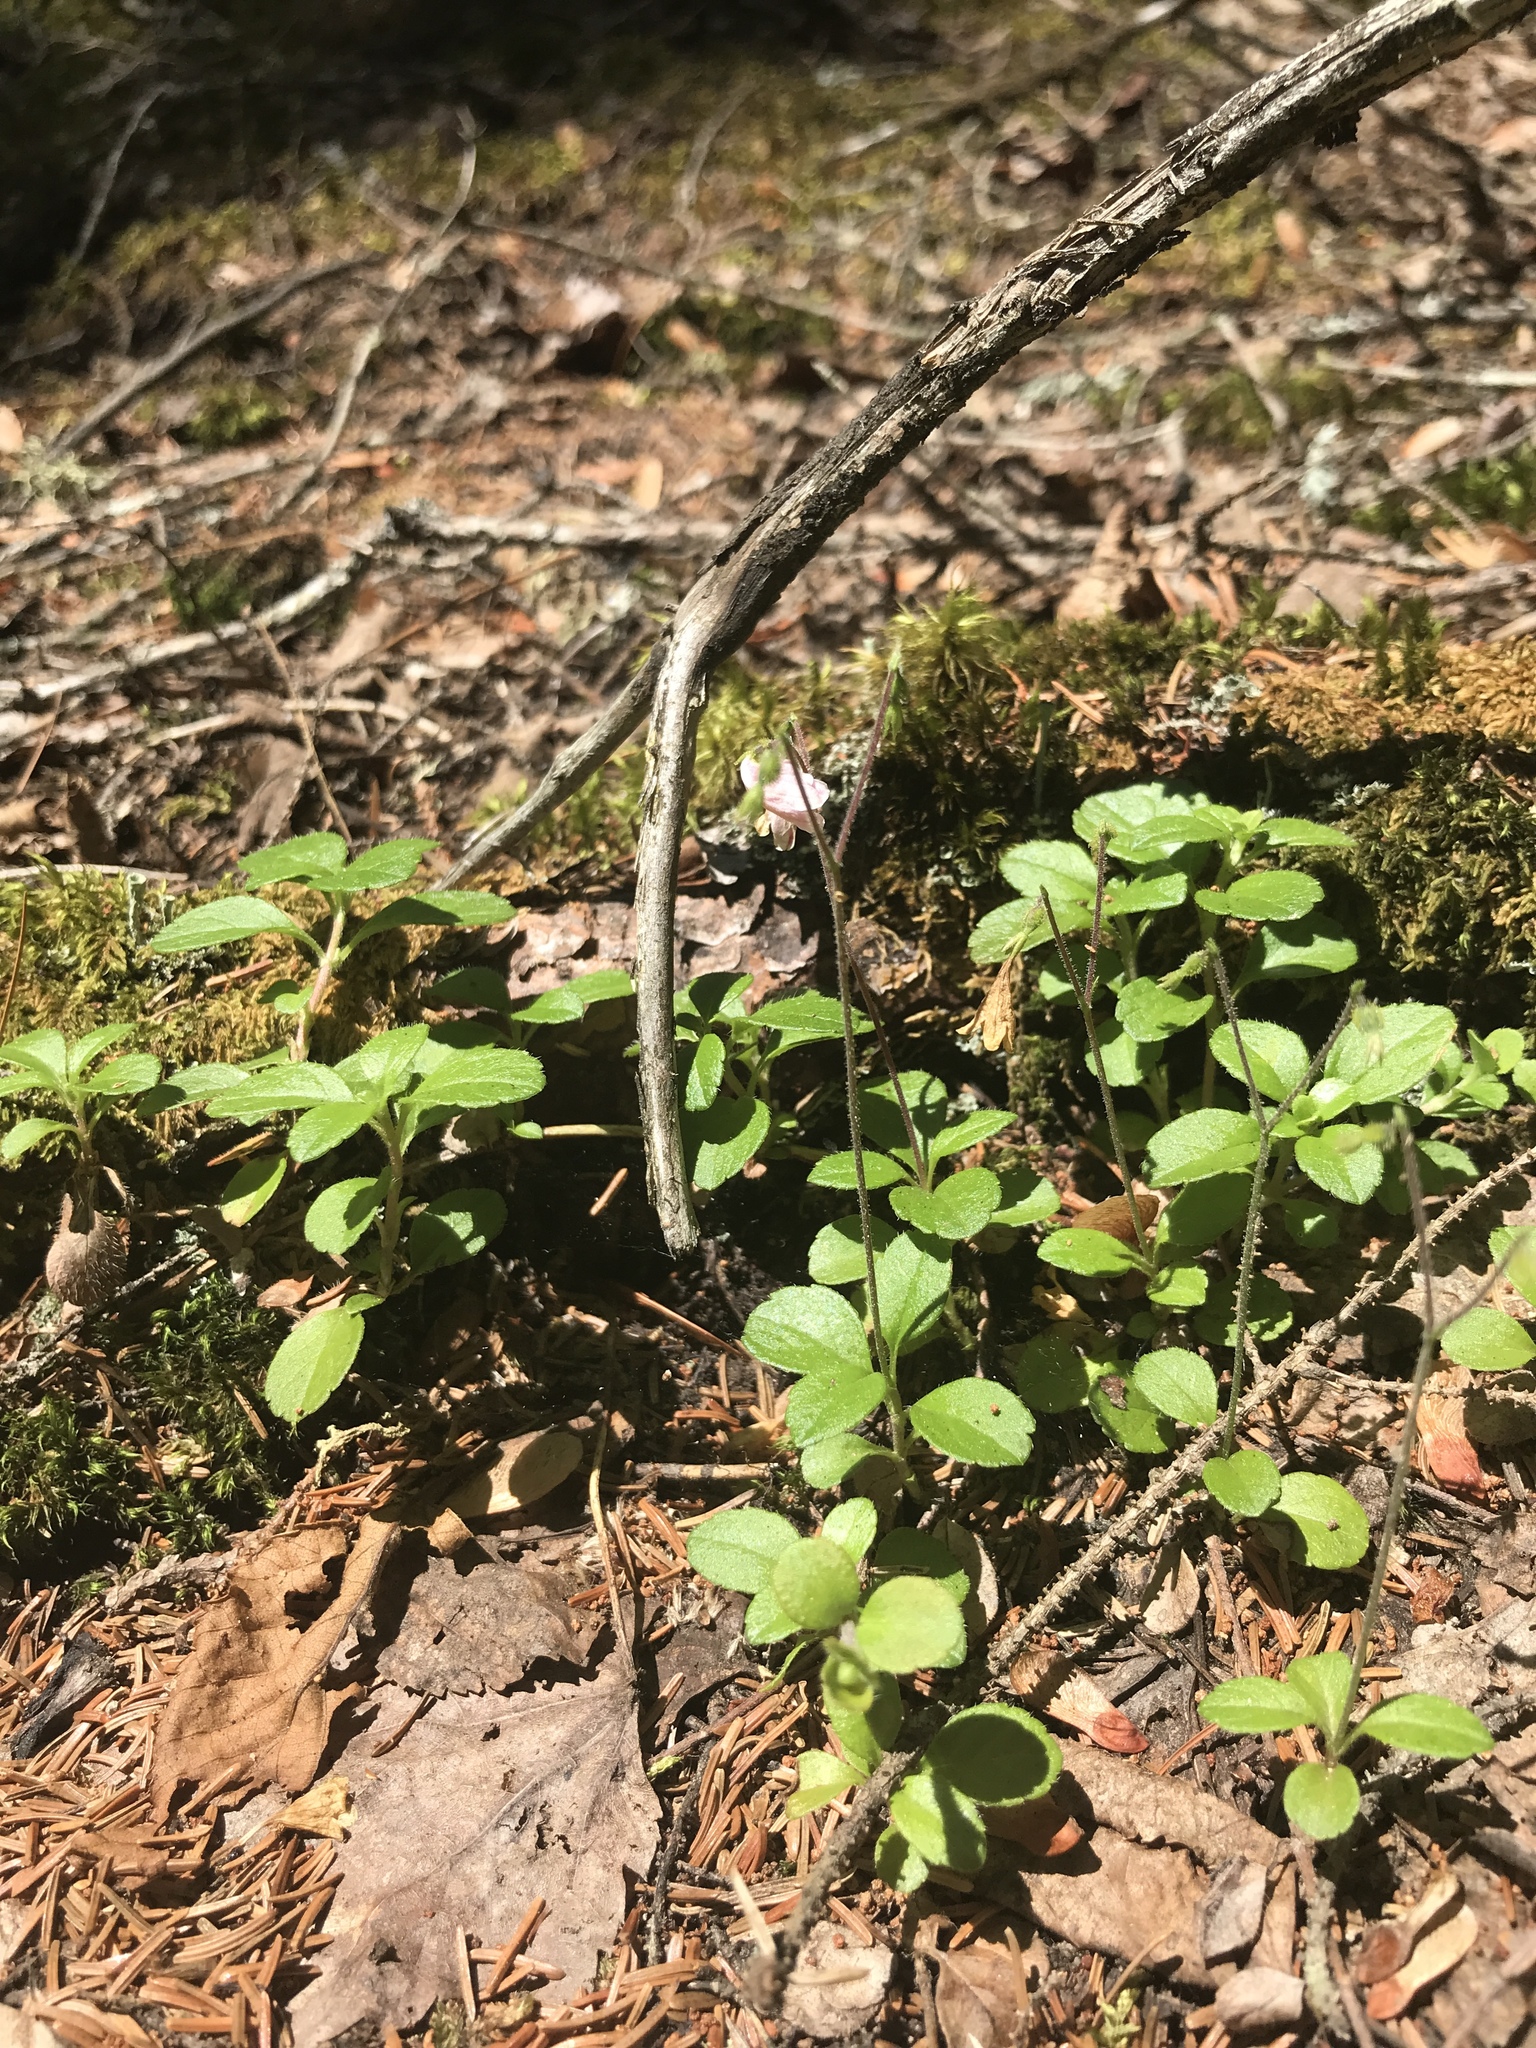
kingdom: Plantae
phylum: Tracheophyta
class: Magnoliopsida
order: Dipsacales
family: Caprifoliaceae
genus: Linnaea
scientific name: Linnaea borealis
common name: Twinflower
